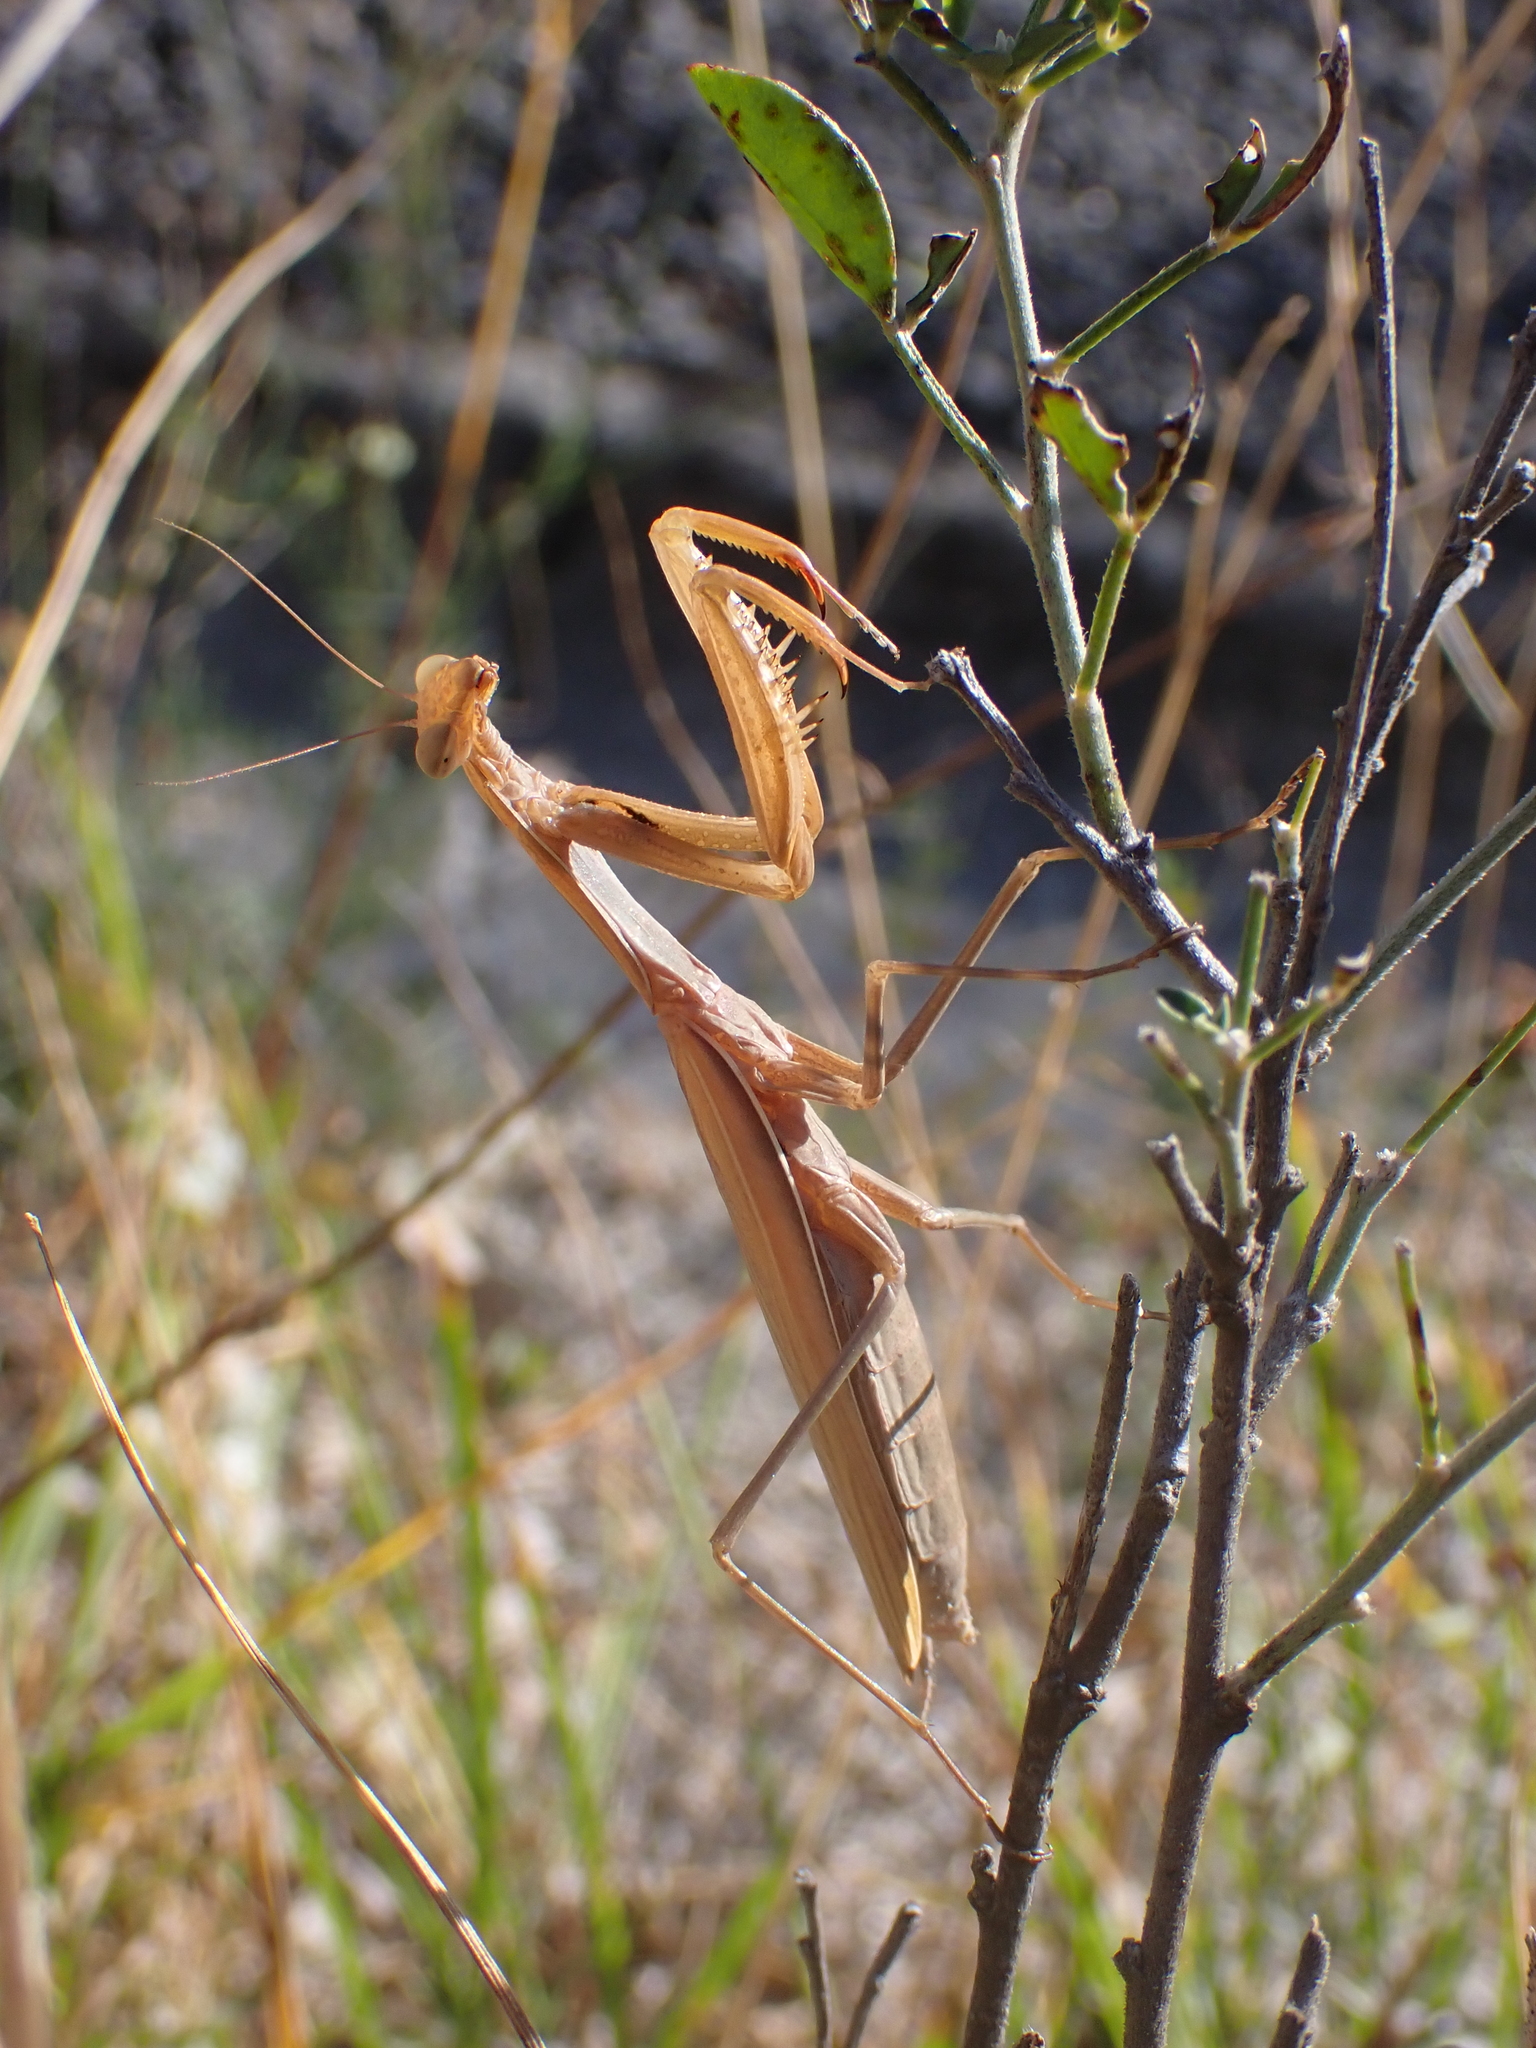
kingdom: Animalia
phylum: Arthropoda
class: Insecta
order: Mantodea
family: Mantidae
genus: Mantis
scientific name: Mantis religiosa
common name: Praying mantis
